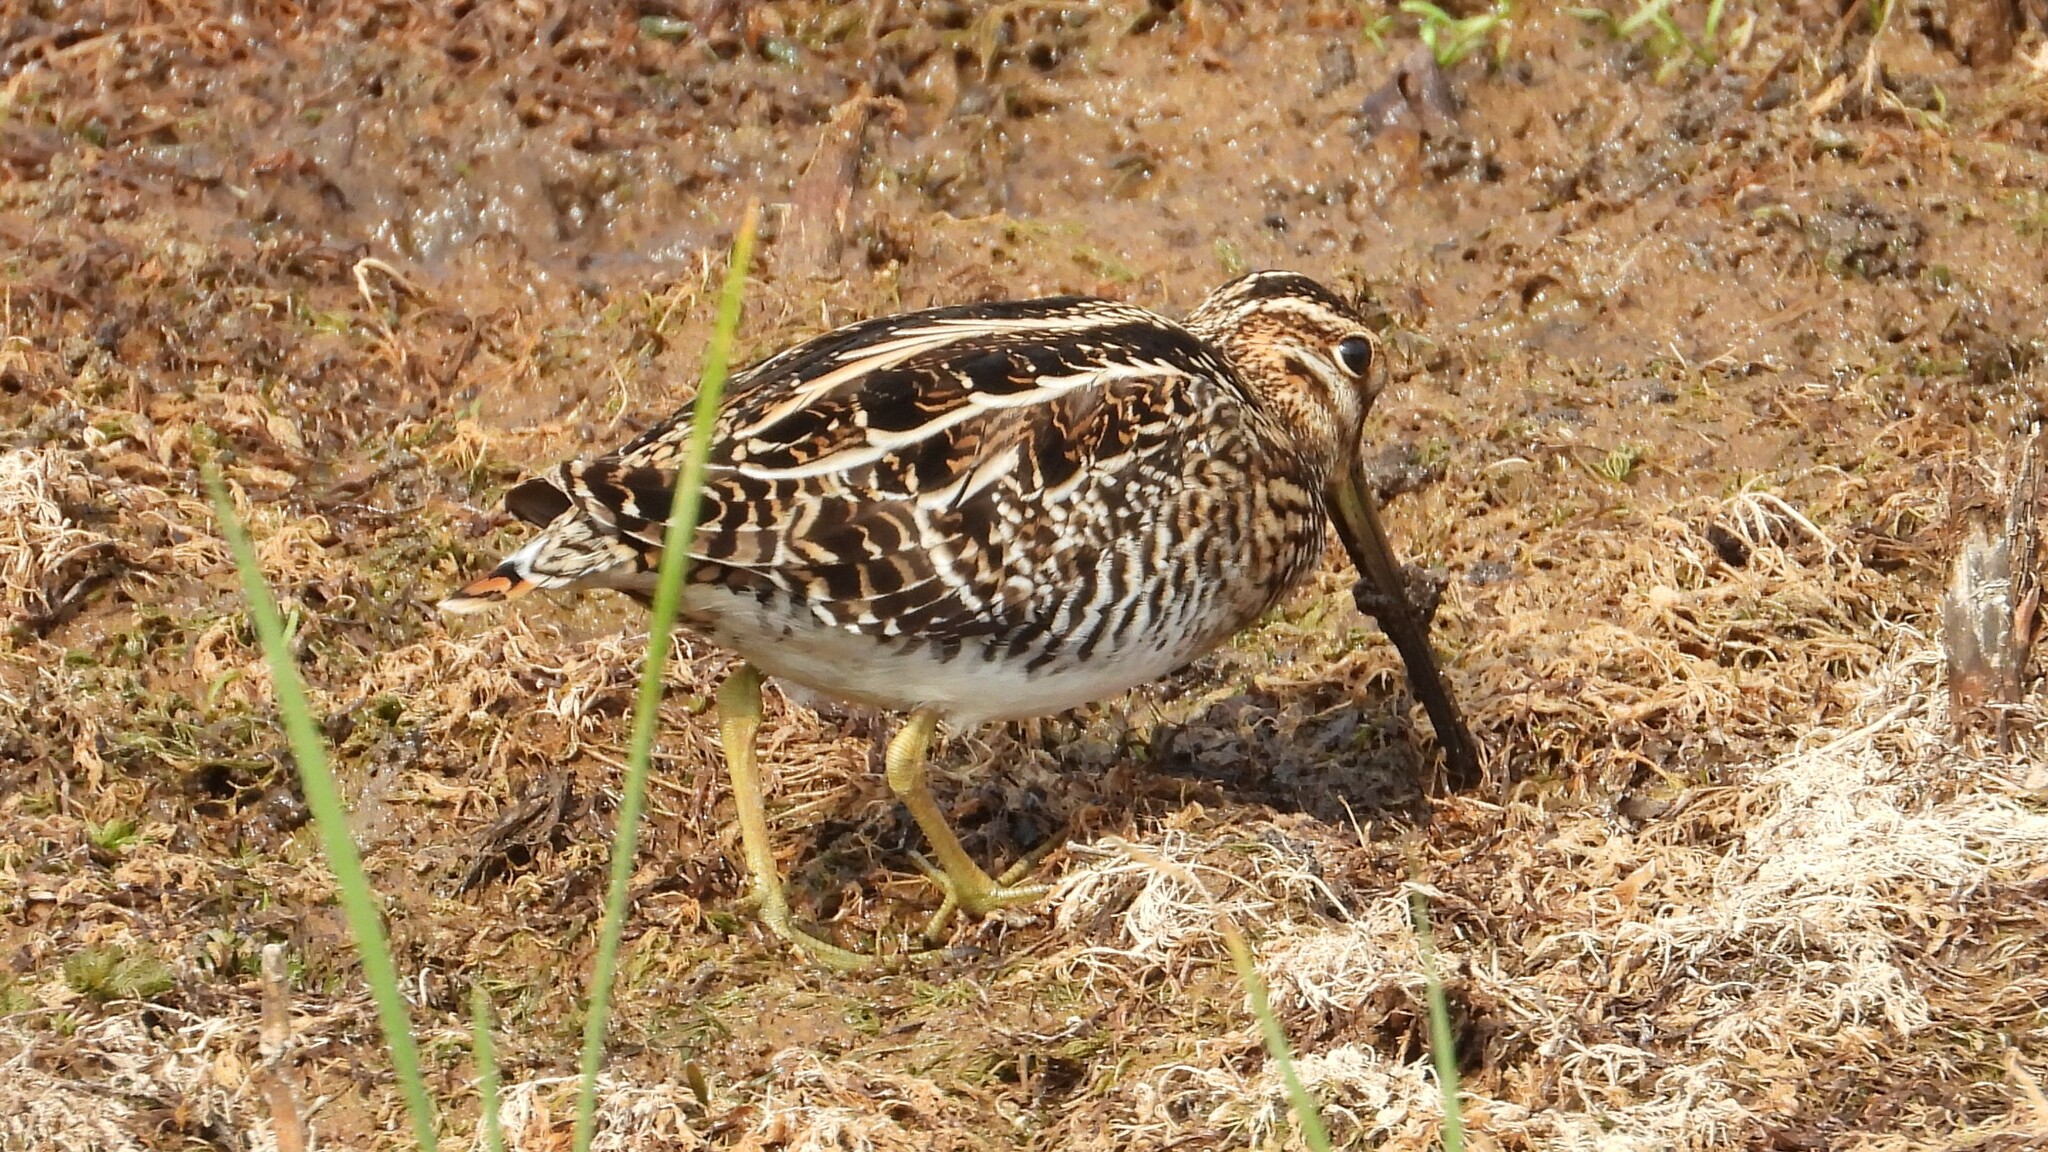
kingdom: Animalia
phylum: Chordata
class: Aves
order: Charadriiformes
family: Scolopacidae
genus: Gallinago
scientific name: Gallinago delicata
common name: Wilson's snipe
